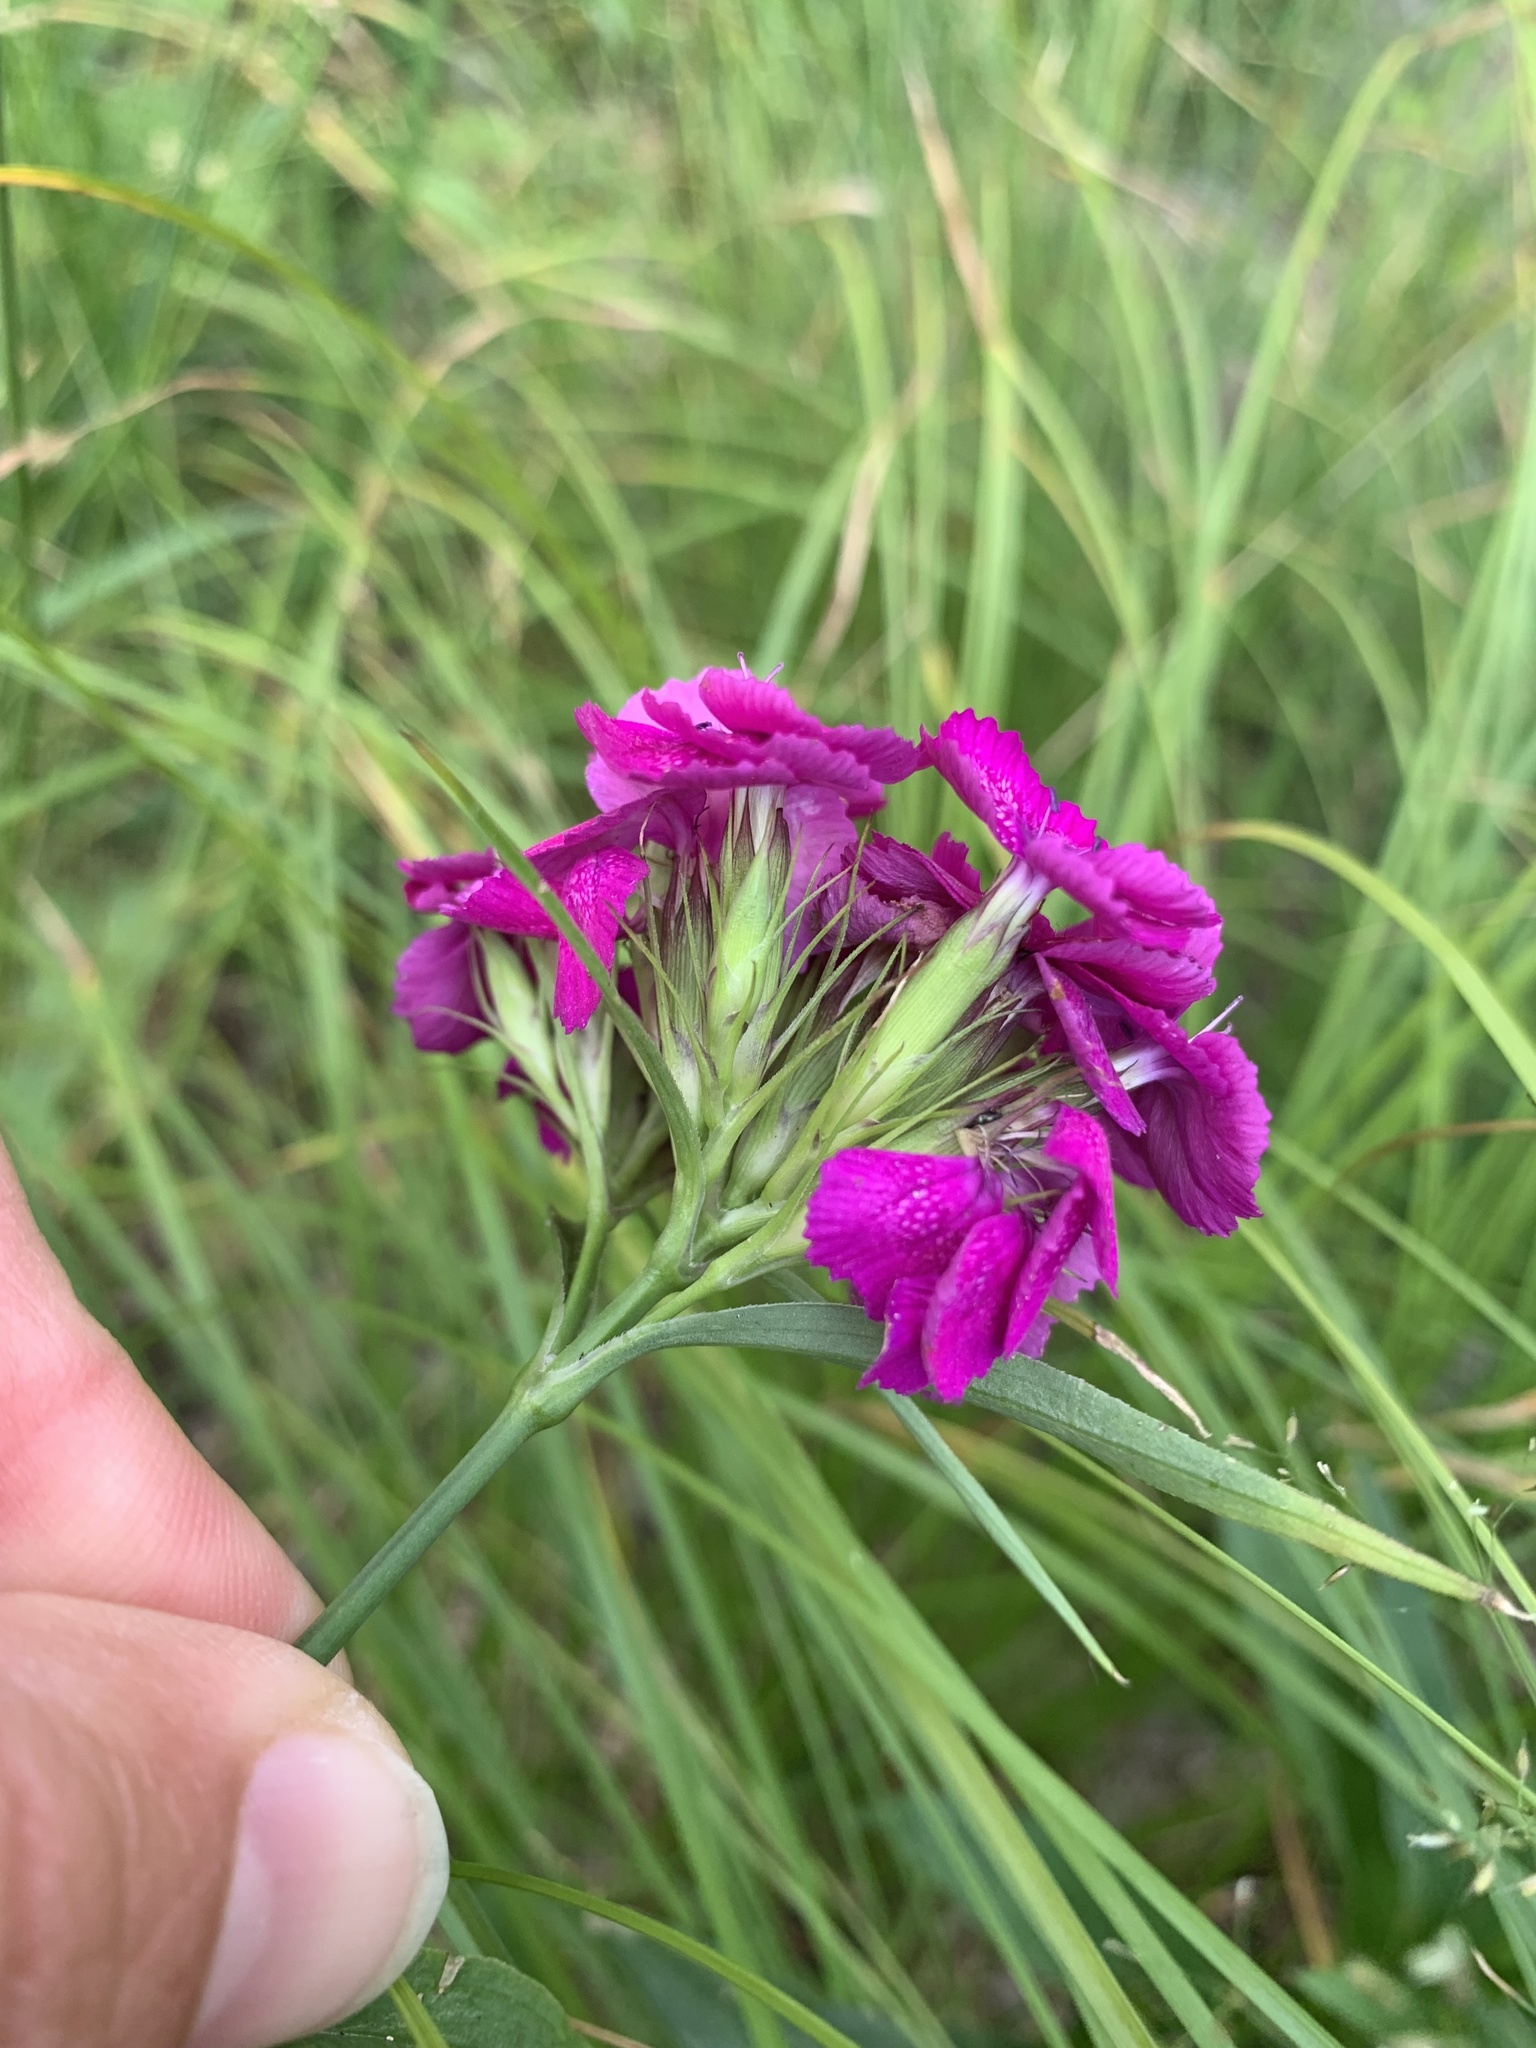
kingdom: Plantae
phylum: Tracheophyta
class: Magnoliopsida
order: Caryophyllales
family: Caryophyllaceae
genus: Dianthus
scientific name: Dianthus barbatus
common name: Sweet-william
